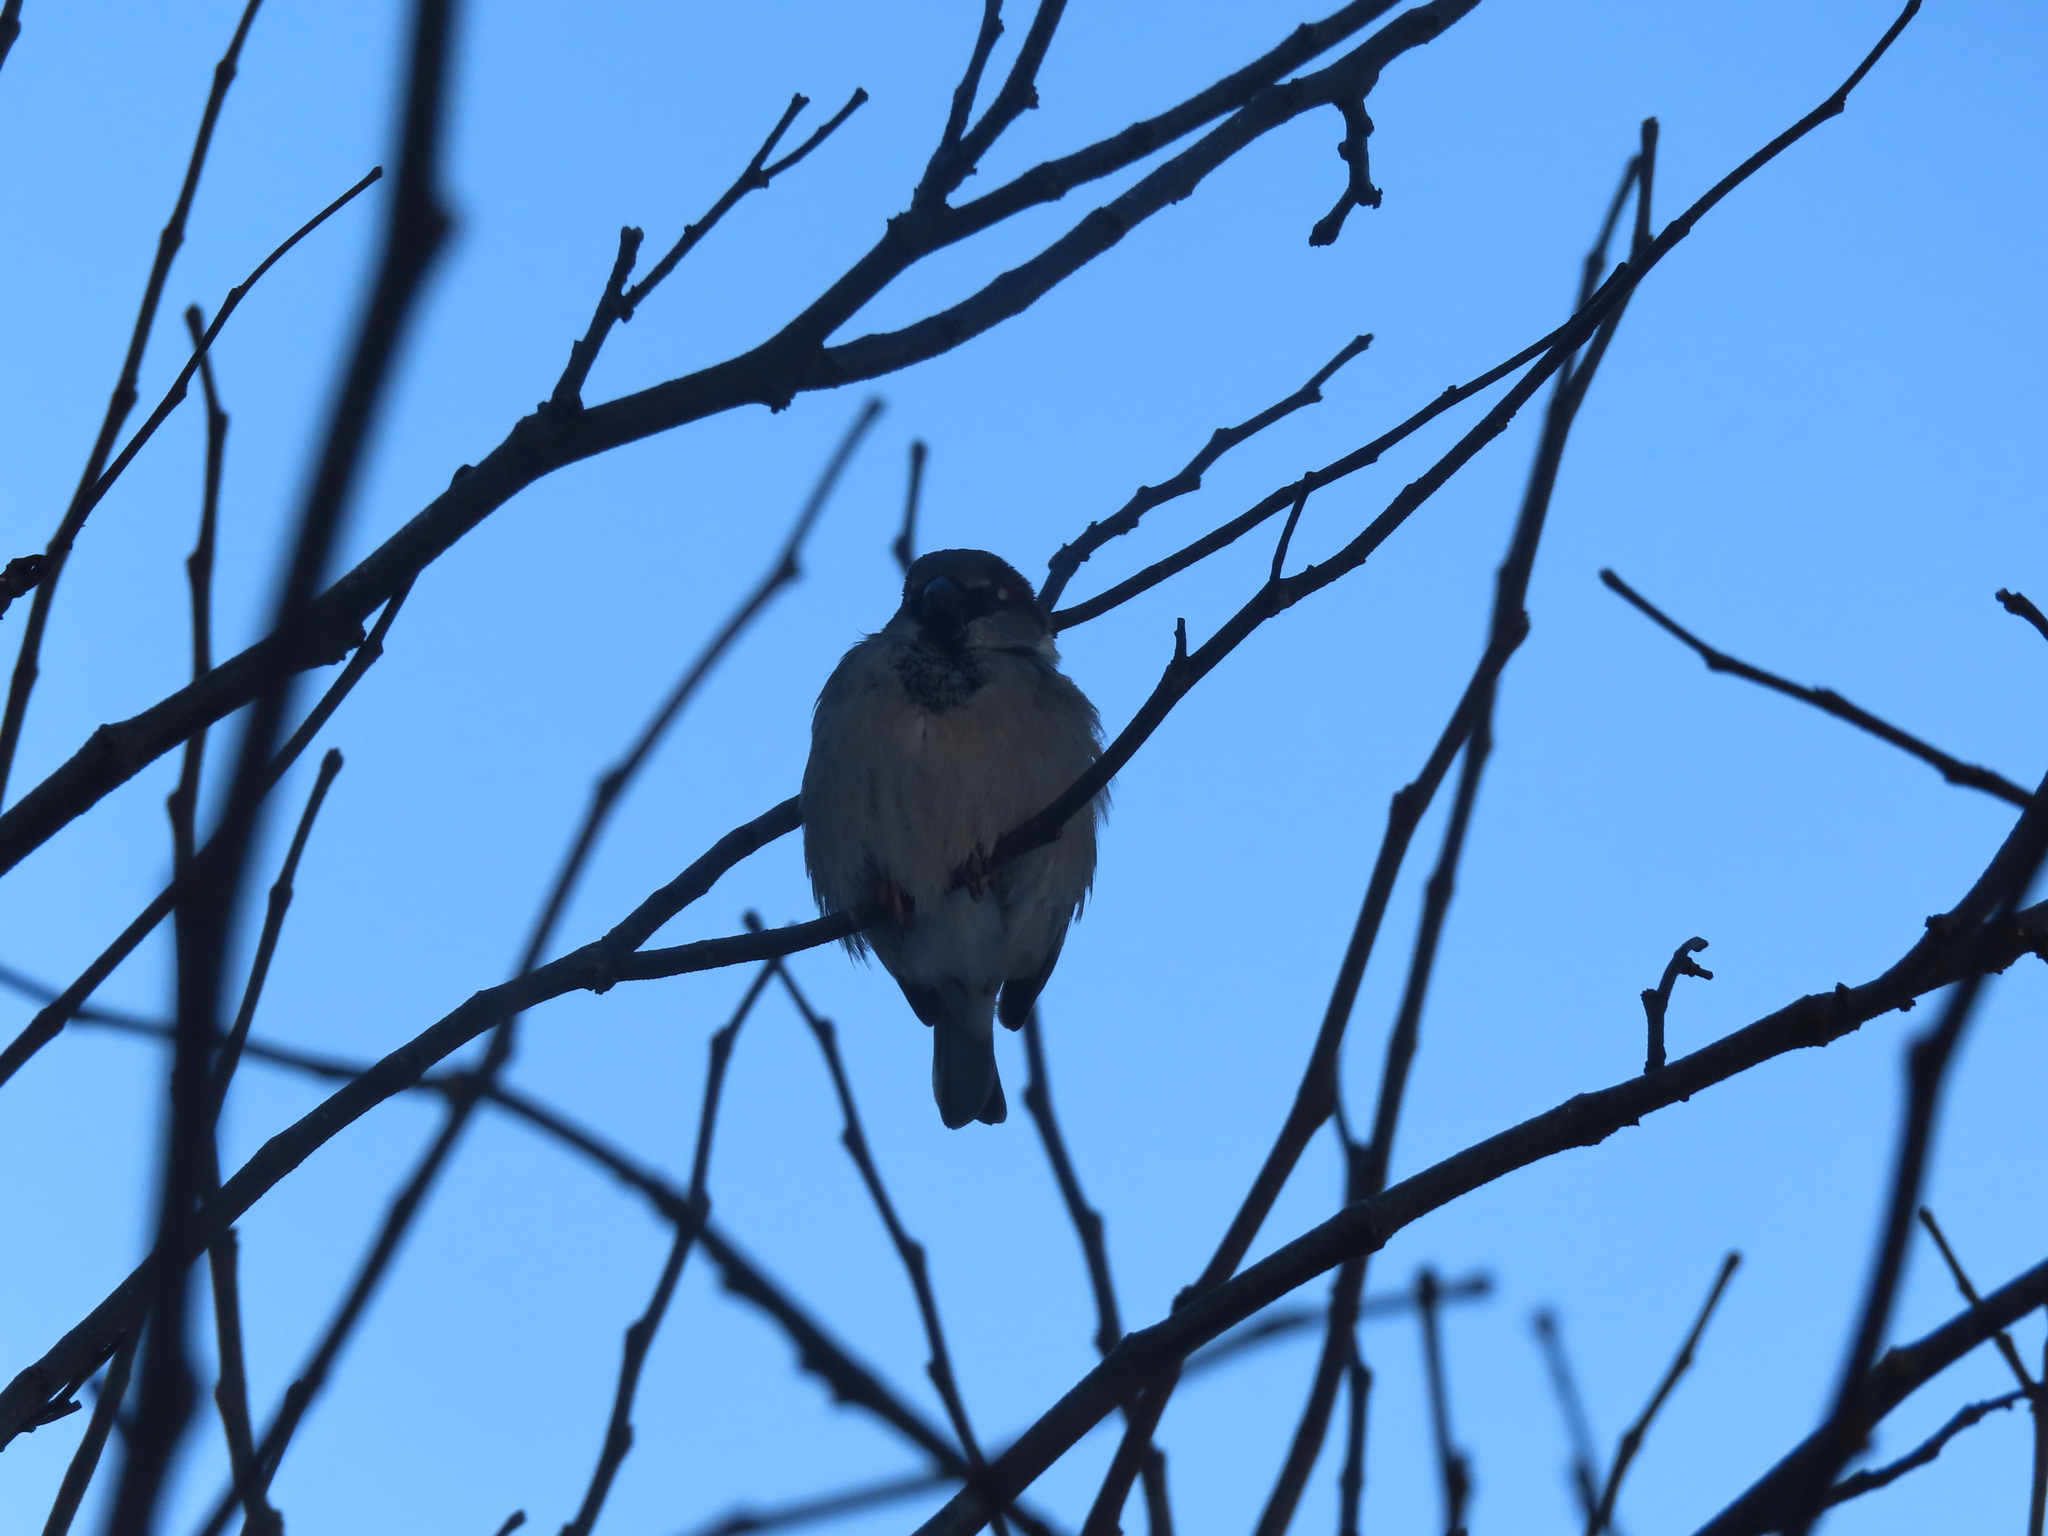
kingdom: Animalia
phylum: Chordata
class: Aves
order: Passeriformes
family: Passeridae
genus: Passer
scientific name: Passer domesticus
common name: House sparrow
